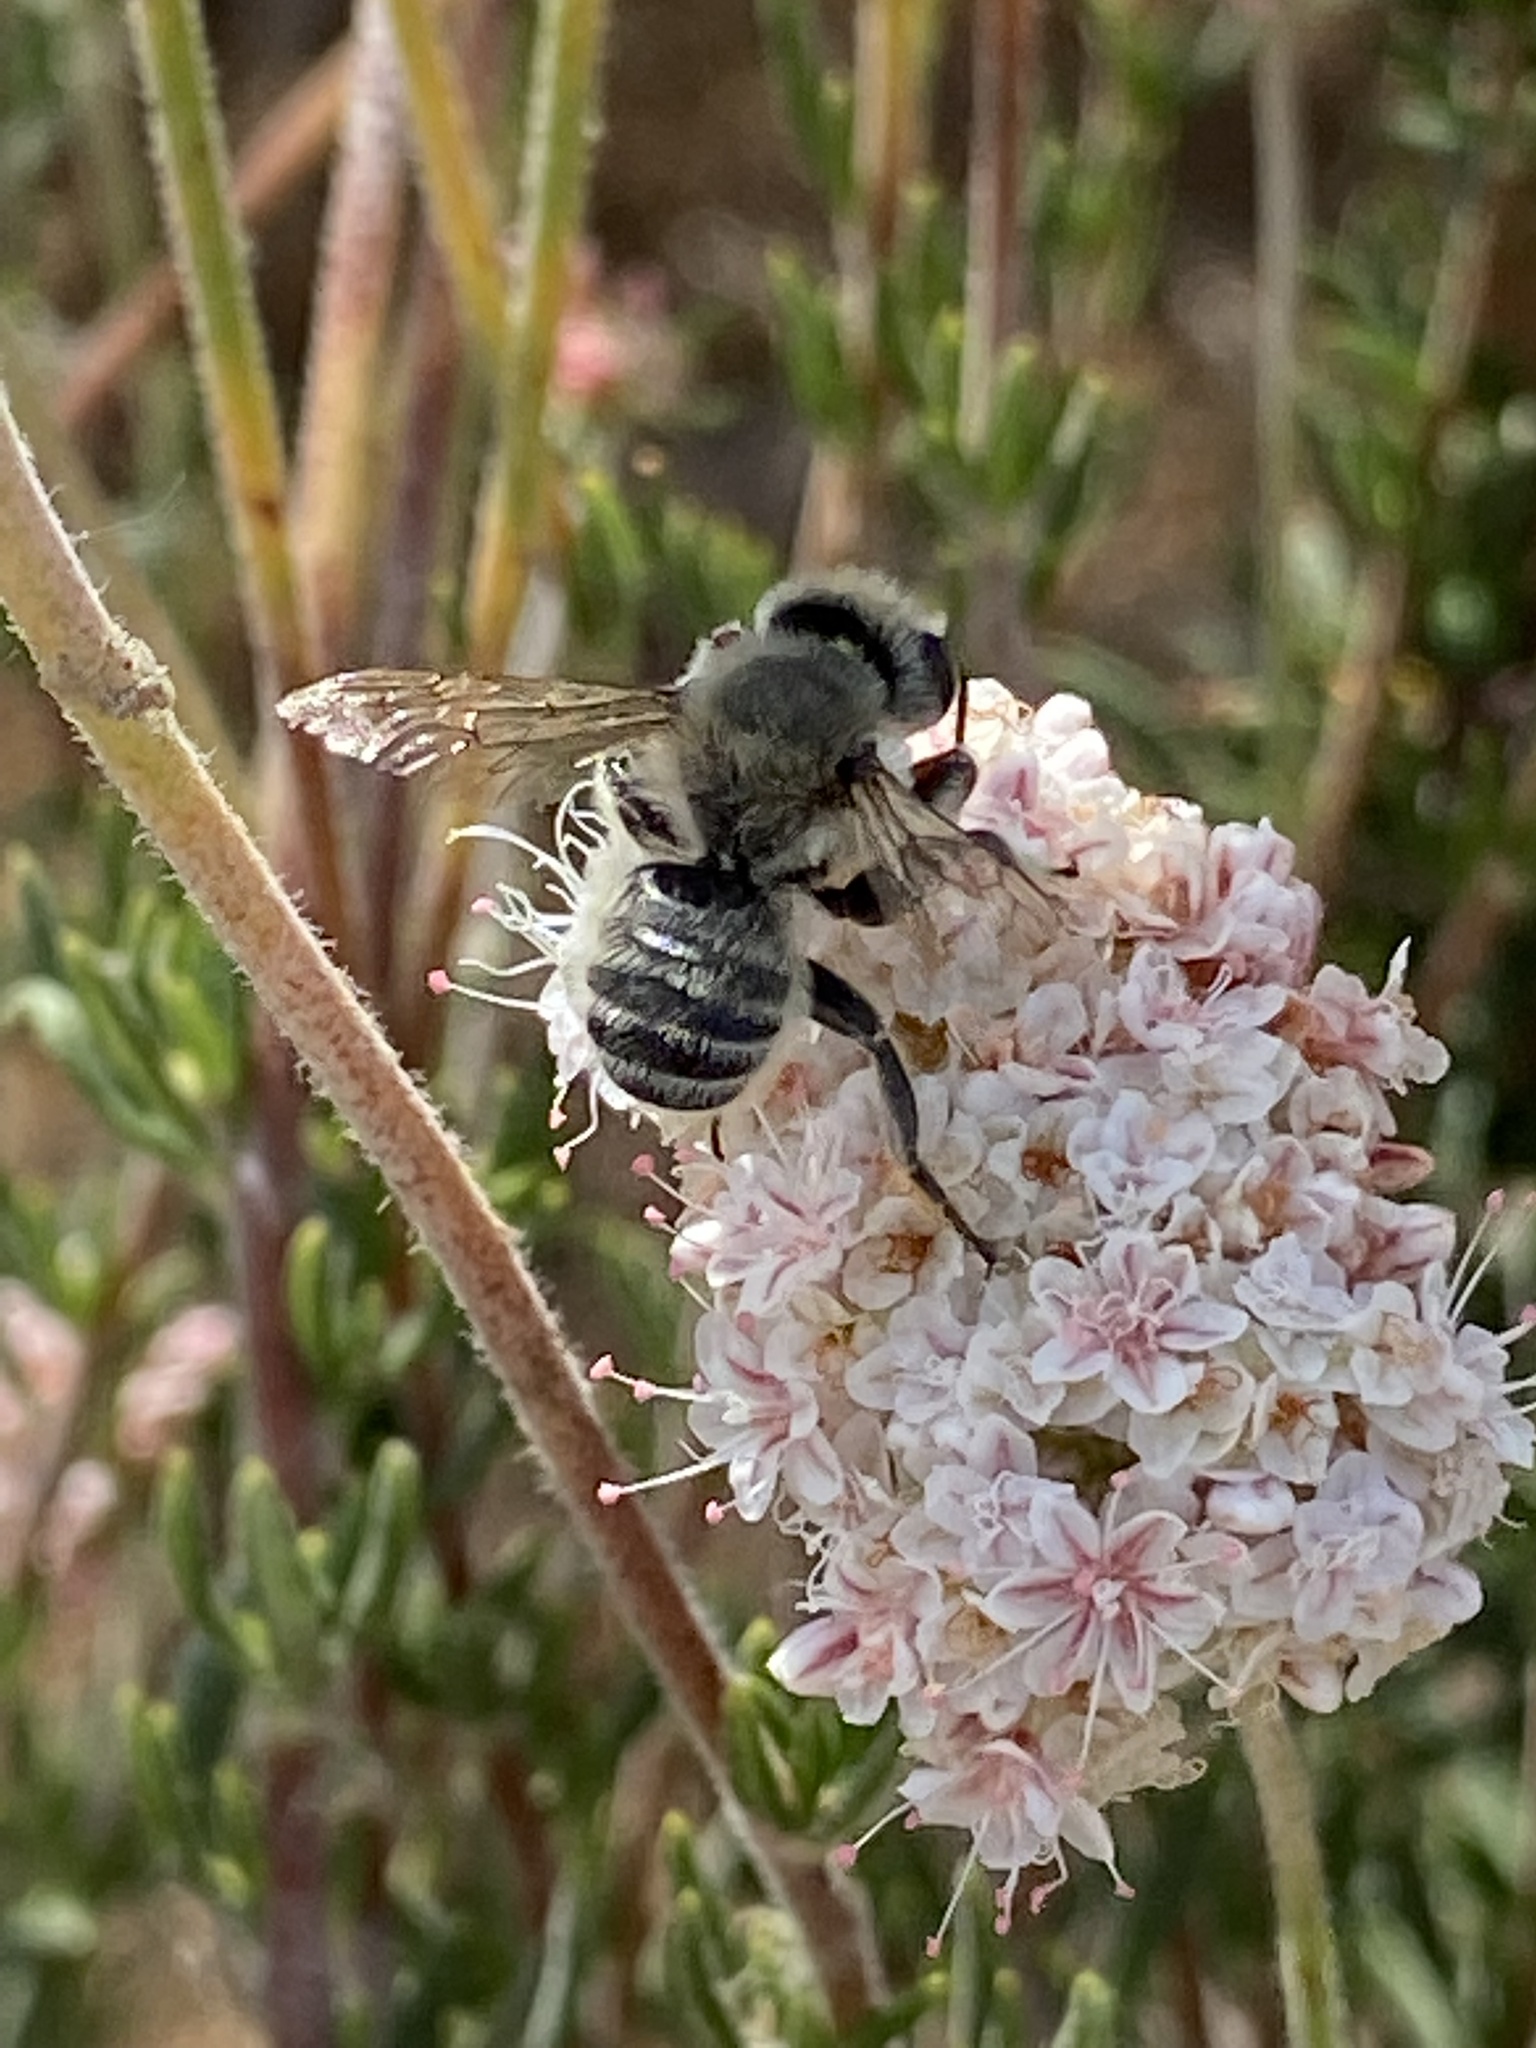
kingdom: Animalia
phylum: Arthropoda
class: Insecta
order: Hymenoptera
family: Megachilidae
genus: Megachile
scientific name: Megachile perihirta
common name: Western leafcutter
